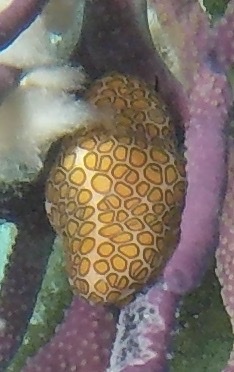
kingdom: Animalia
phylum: Mollusca
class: Gastropoda
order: Littorinimorpha
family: Ovulidae
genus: Cyphoma
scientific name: Cyphoma gibbosum
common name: Flamingo tongue
